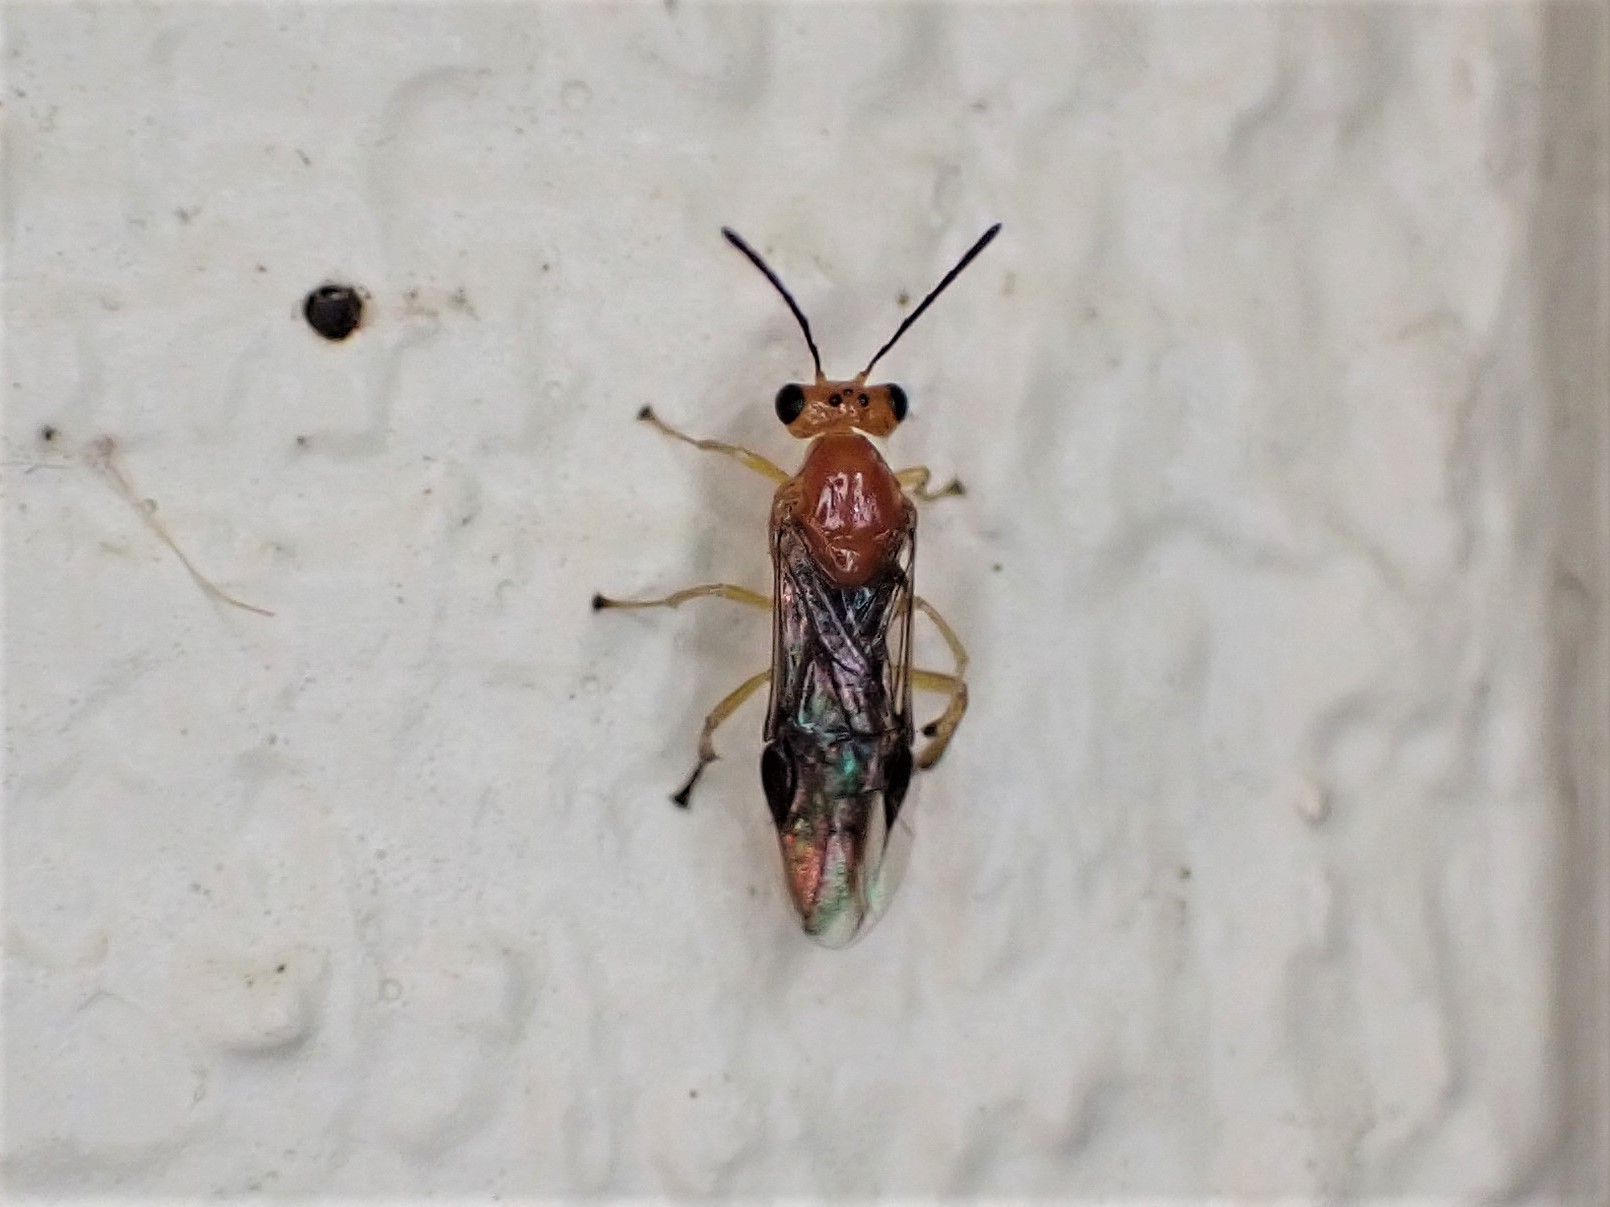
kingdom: Animalia
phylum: Arthropoda
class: Insecta
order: Hymenoptera
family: Pergidae
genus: Phylacteophaga
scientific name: Phylacteophaga froggatti
